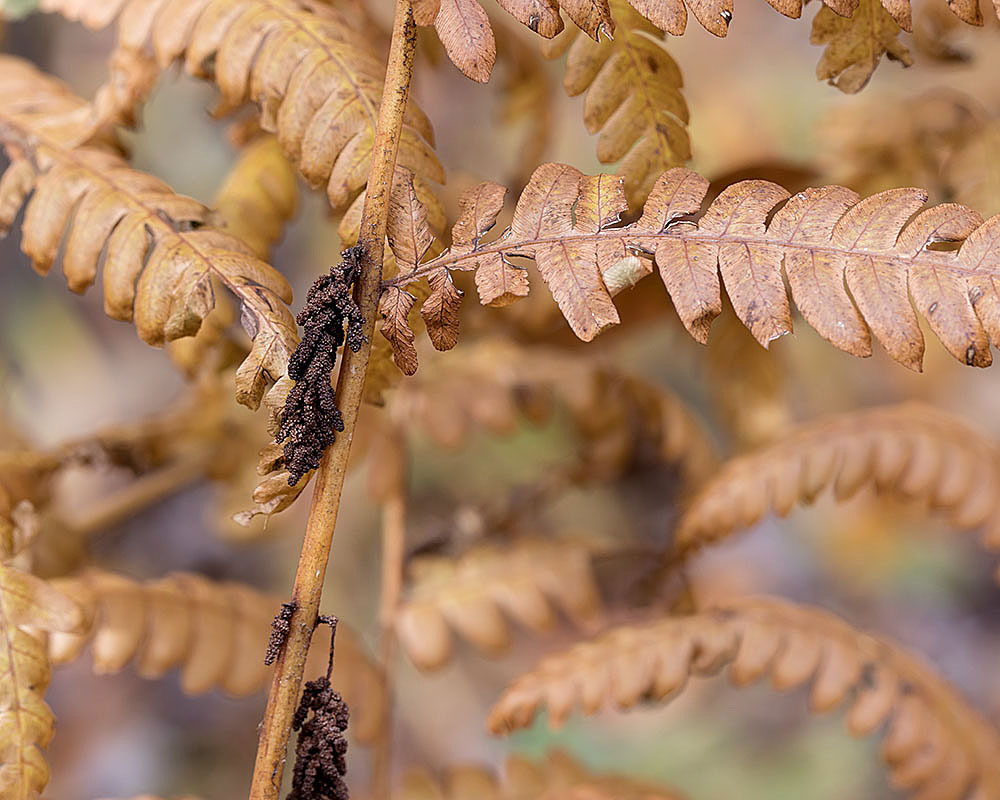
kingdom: Plantae
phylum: Tracheophyta
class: Polypodiopsida
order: Osmundales
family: Osmundaceae
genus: Claytosmunda
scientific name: Claytosmunda claytoniana
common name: Clayton's fern
